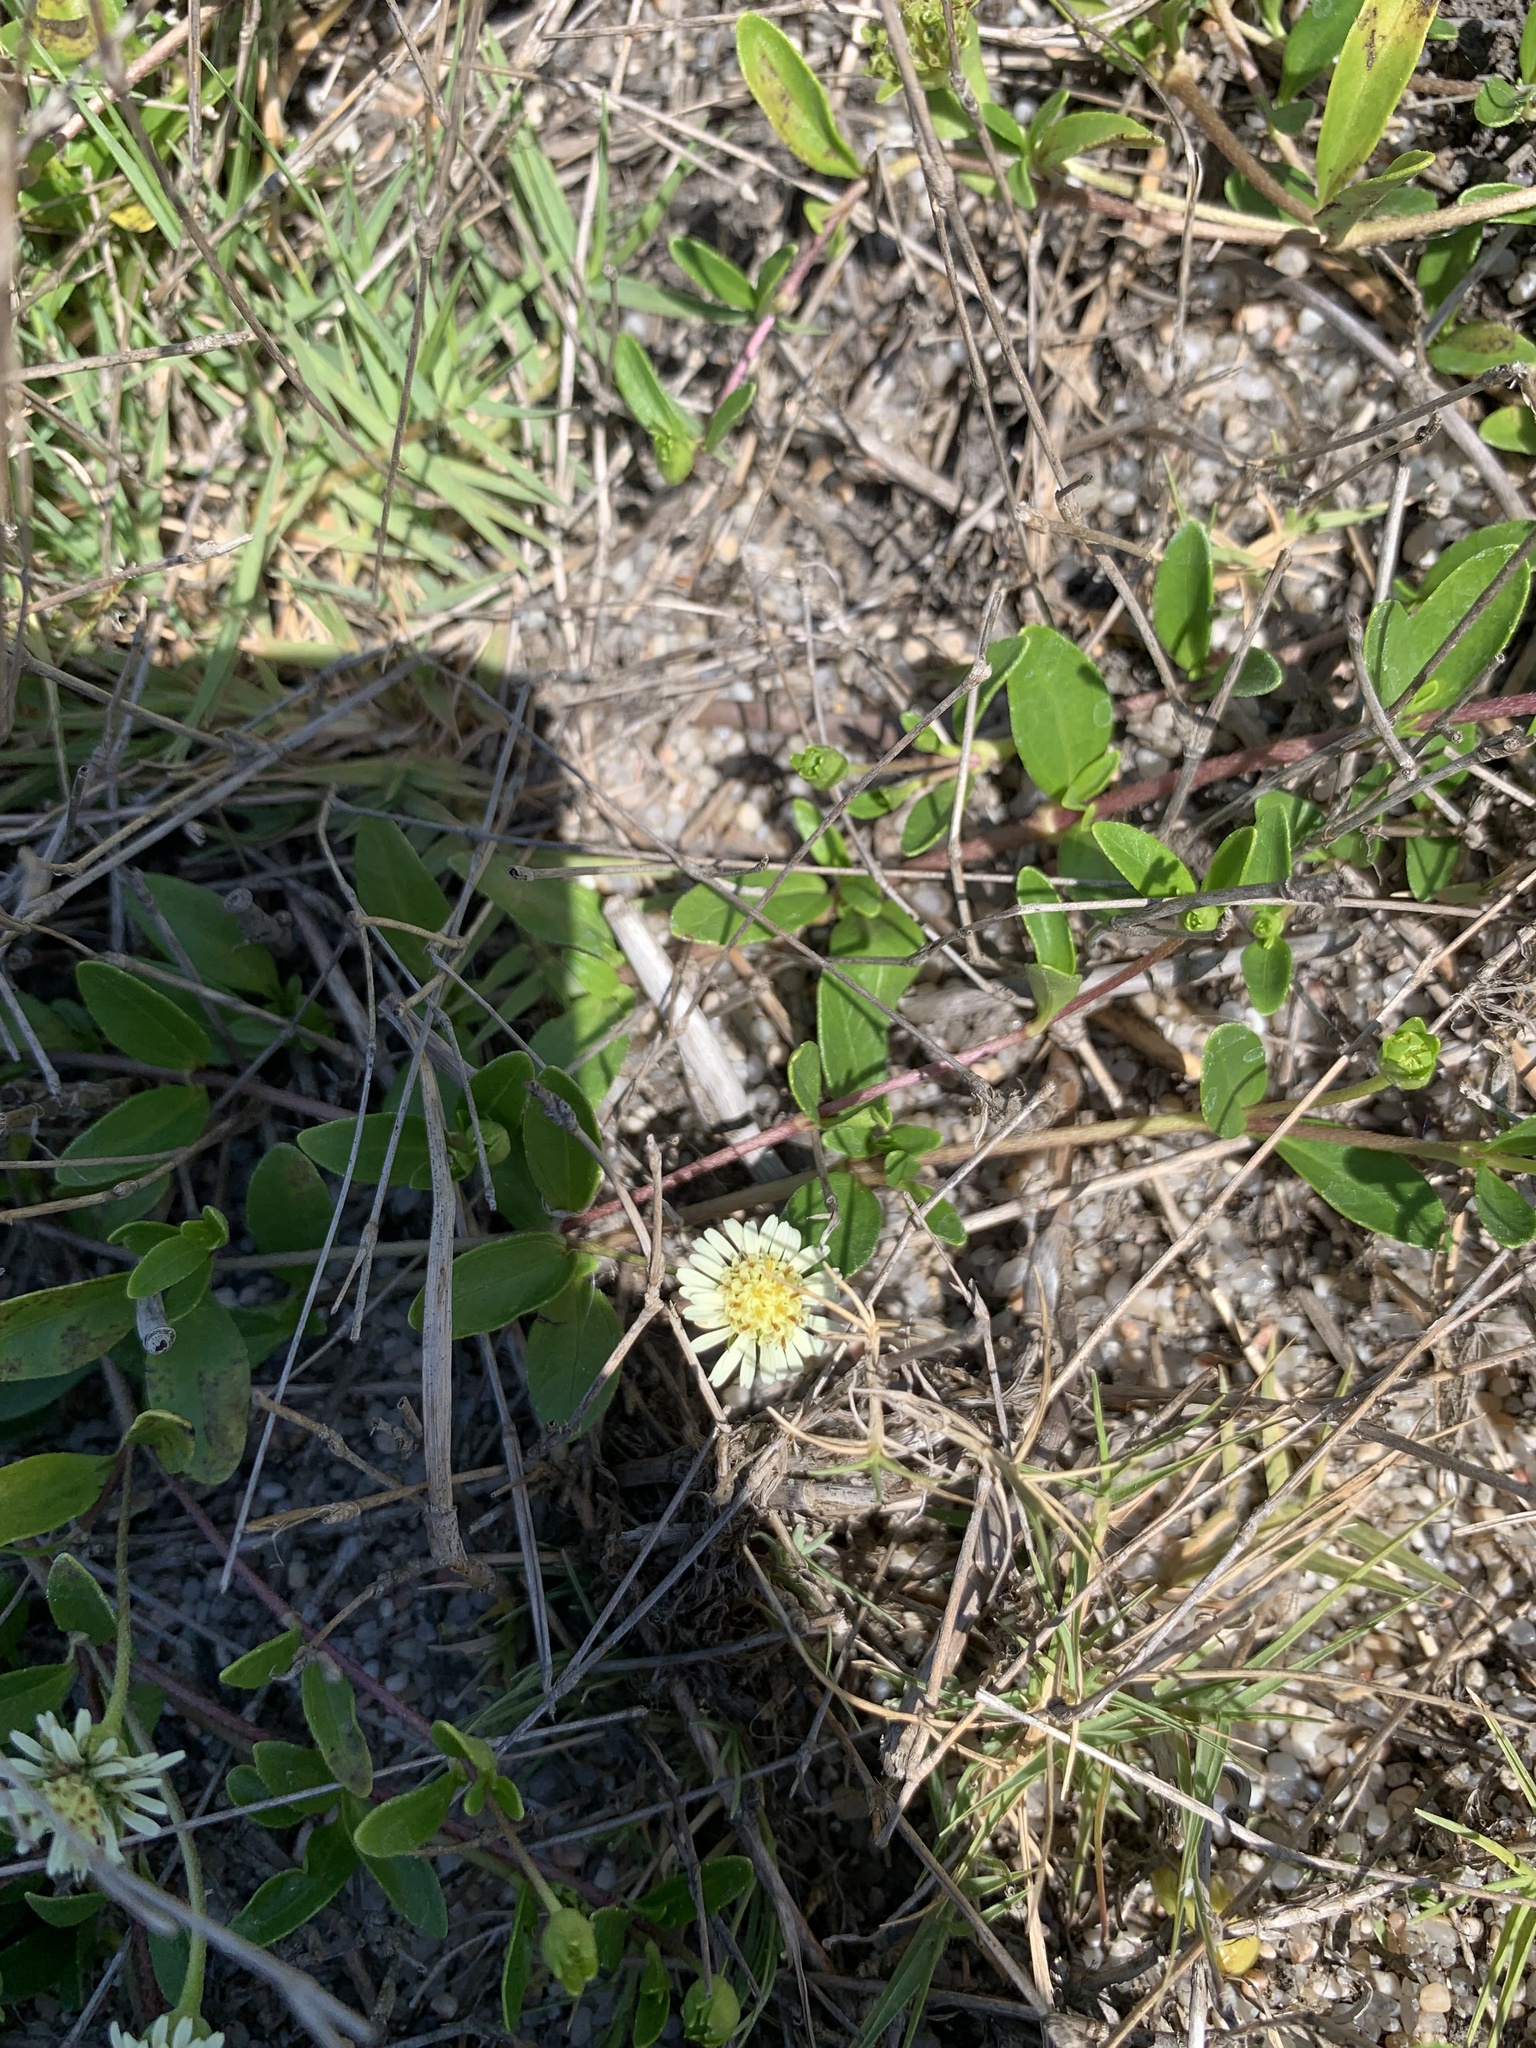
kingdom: Plantae
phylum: Tracheophyta
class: Magnoliopsida
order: Asterales
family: Asteraceae
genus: Eclipta
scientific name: Eclipta elliptica
